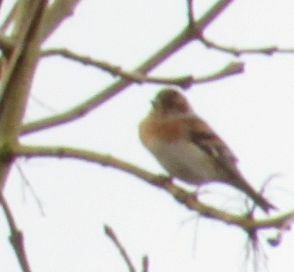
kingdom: Animalia
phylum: Chordata
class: Aves
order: Passeriformes
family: Fringillidae
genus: Fringilla
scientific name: Fringilla montifringilla
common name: Brambling
